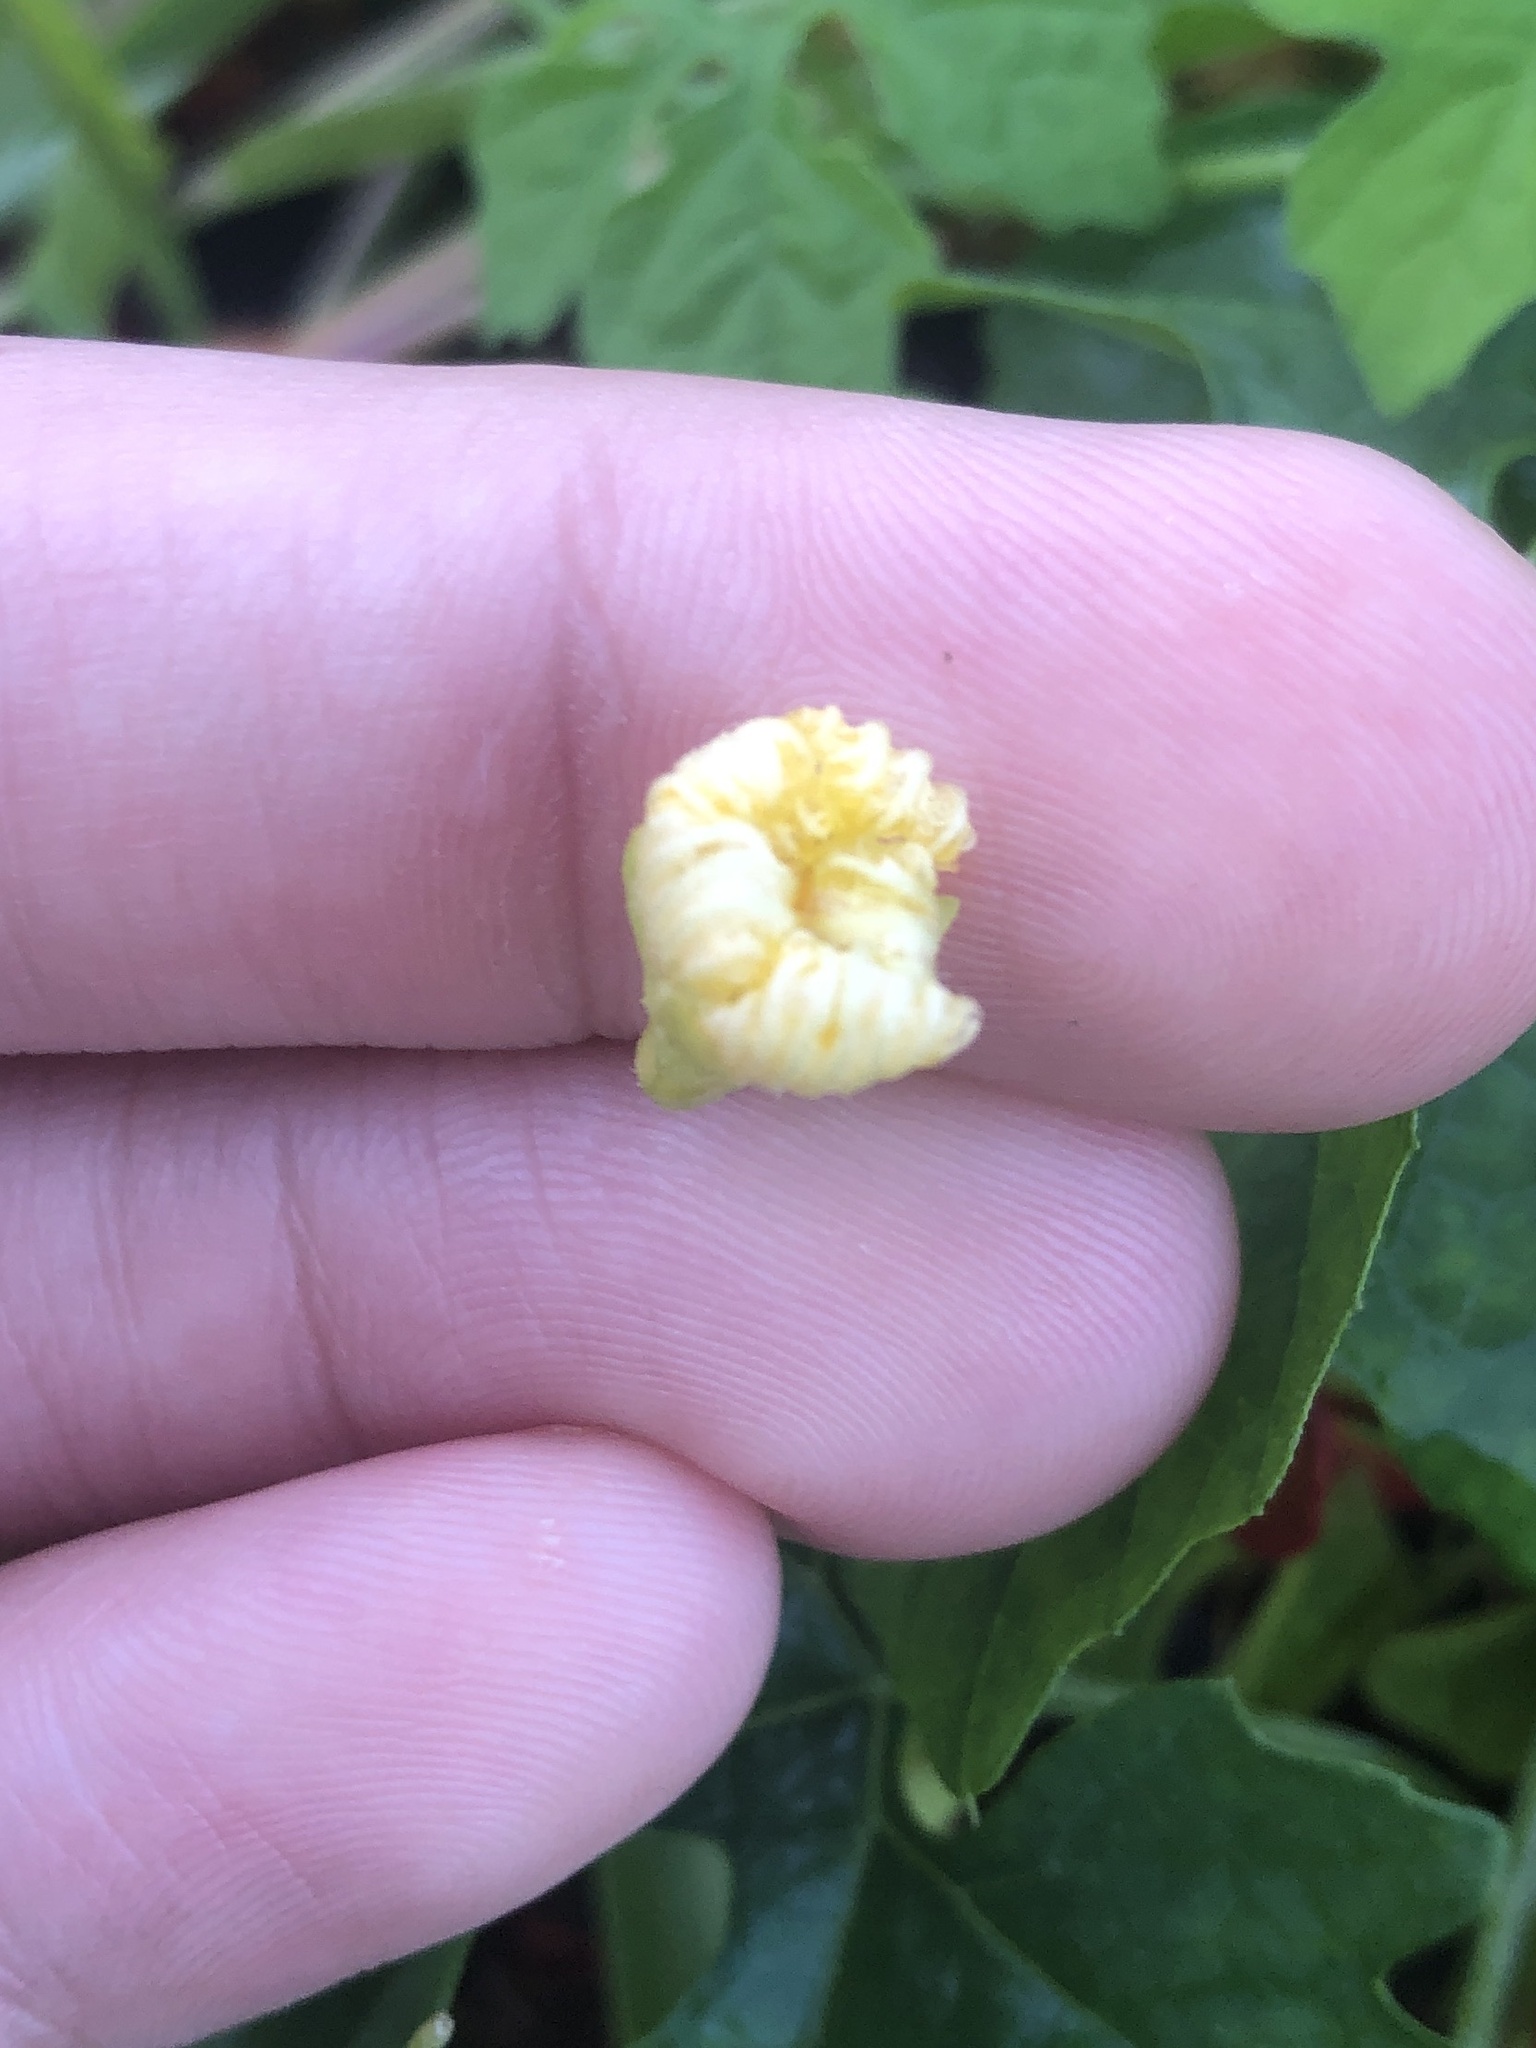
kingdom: Plantae
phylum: Tracheophyta
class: Magnoliopsida
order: Cucurbitales
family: Cucurbitaceae
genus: Momordica
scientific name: Momordica charantia
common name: Balsampear
